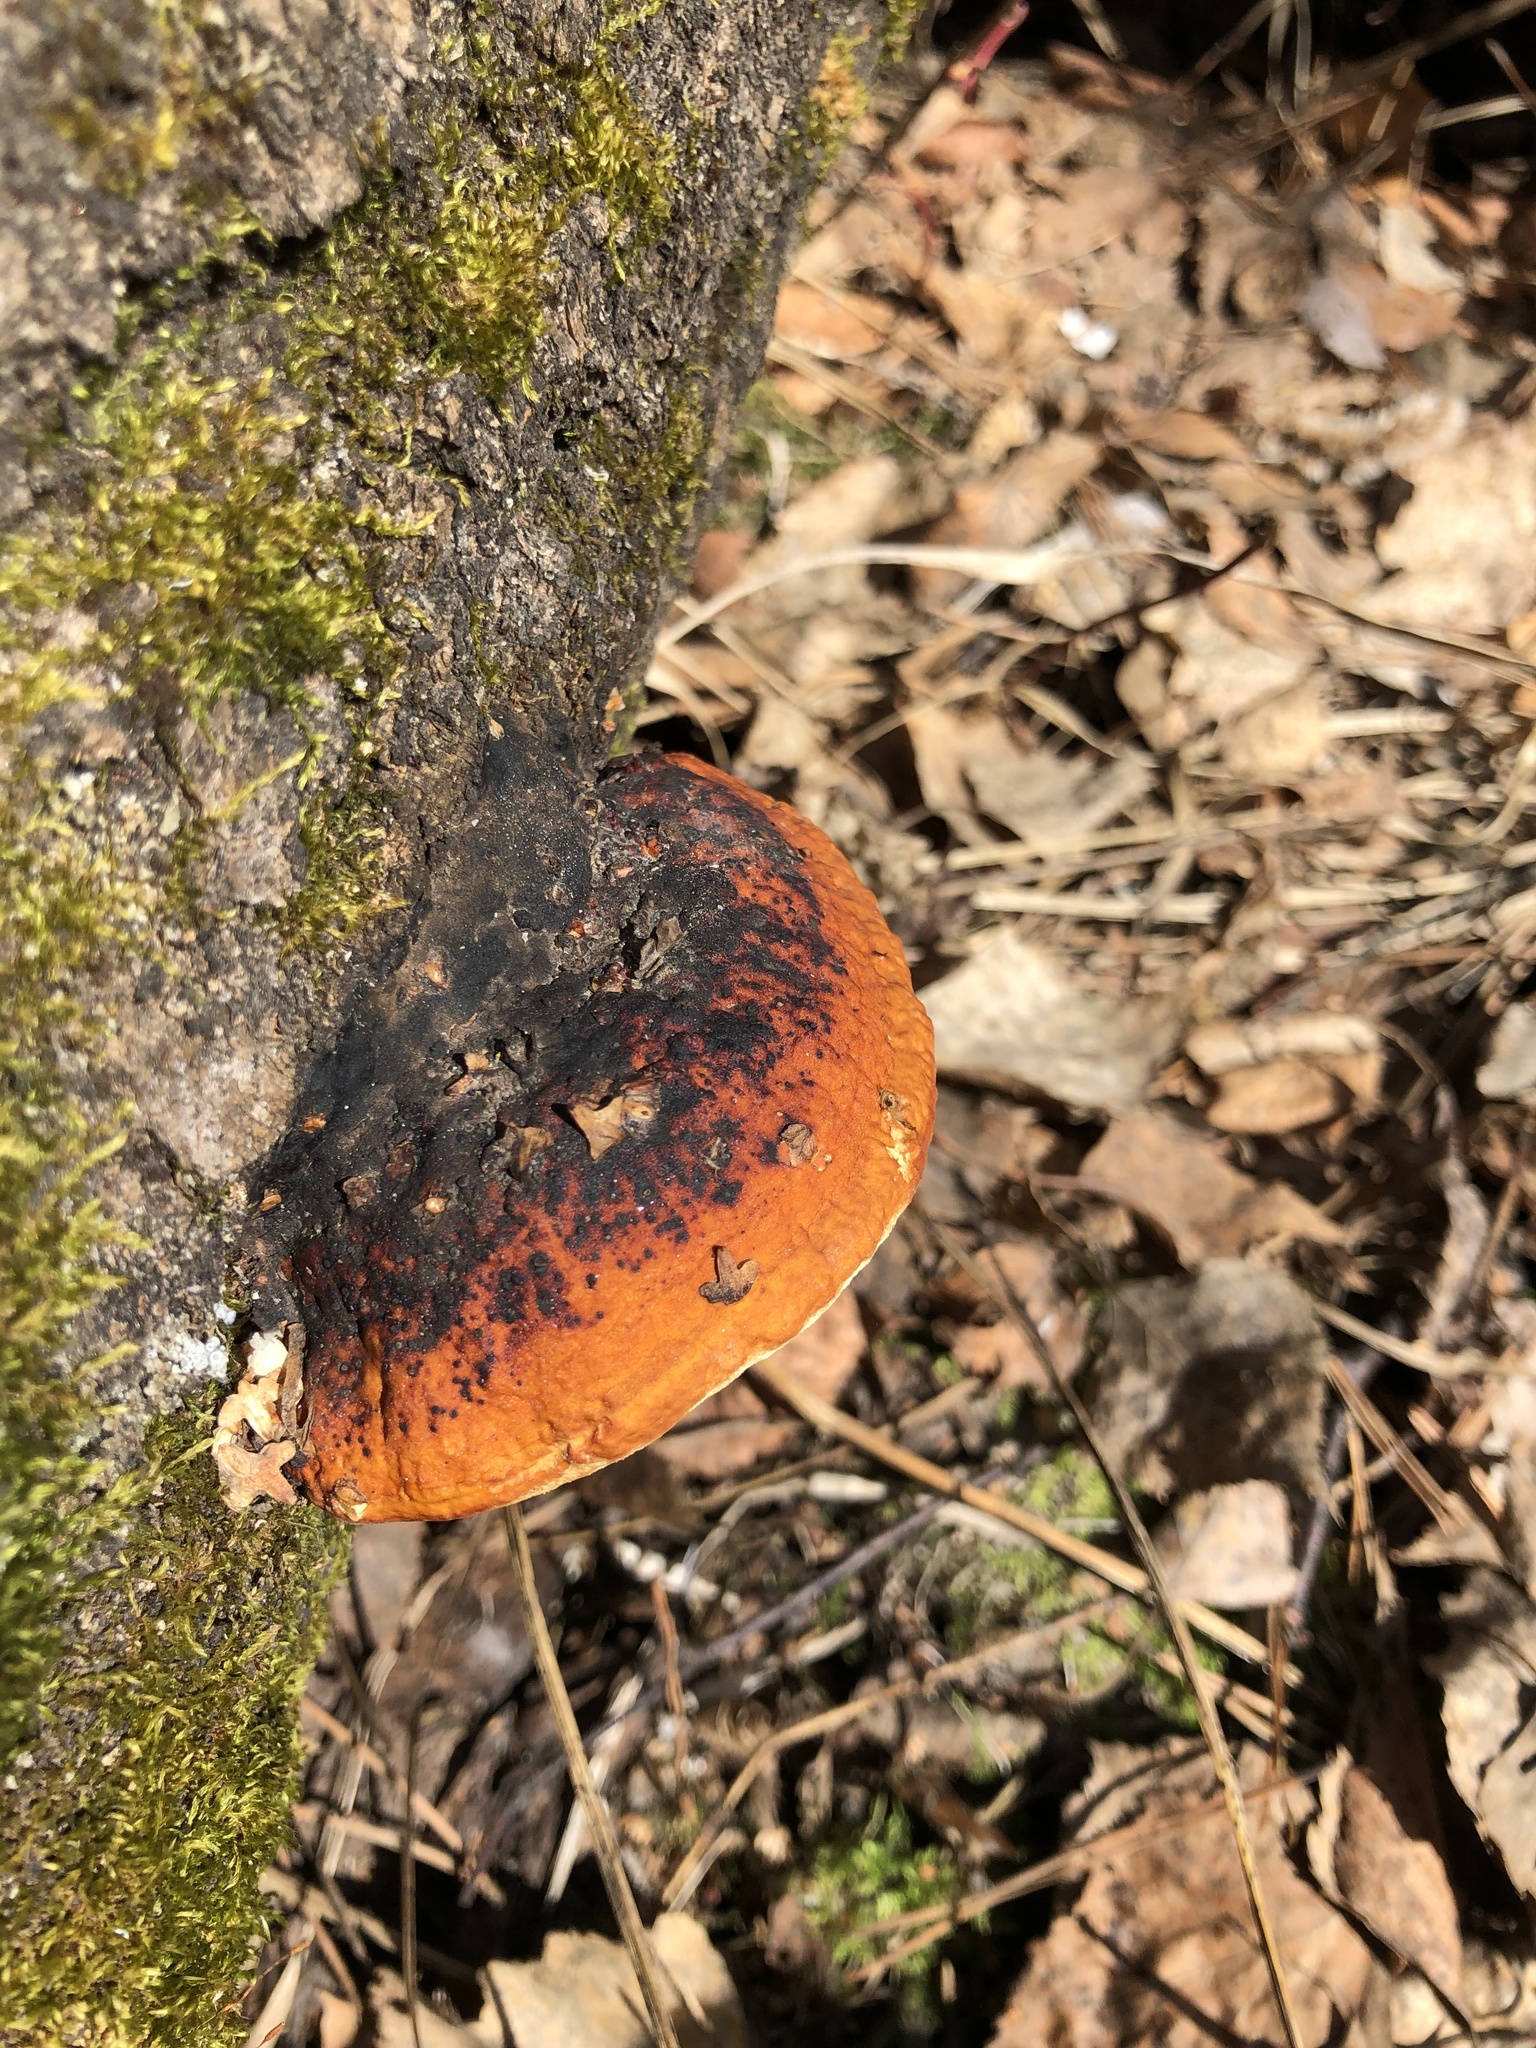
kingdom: Fungi
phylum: Basidiomycota
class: Agaricomycetes
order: Polyporales
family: Fomitopsidaceae
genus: Fomitopsis
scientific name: Fomitopsis pinicola
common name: Red-belted bracket
